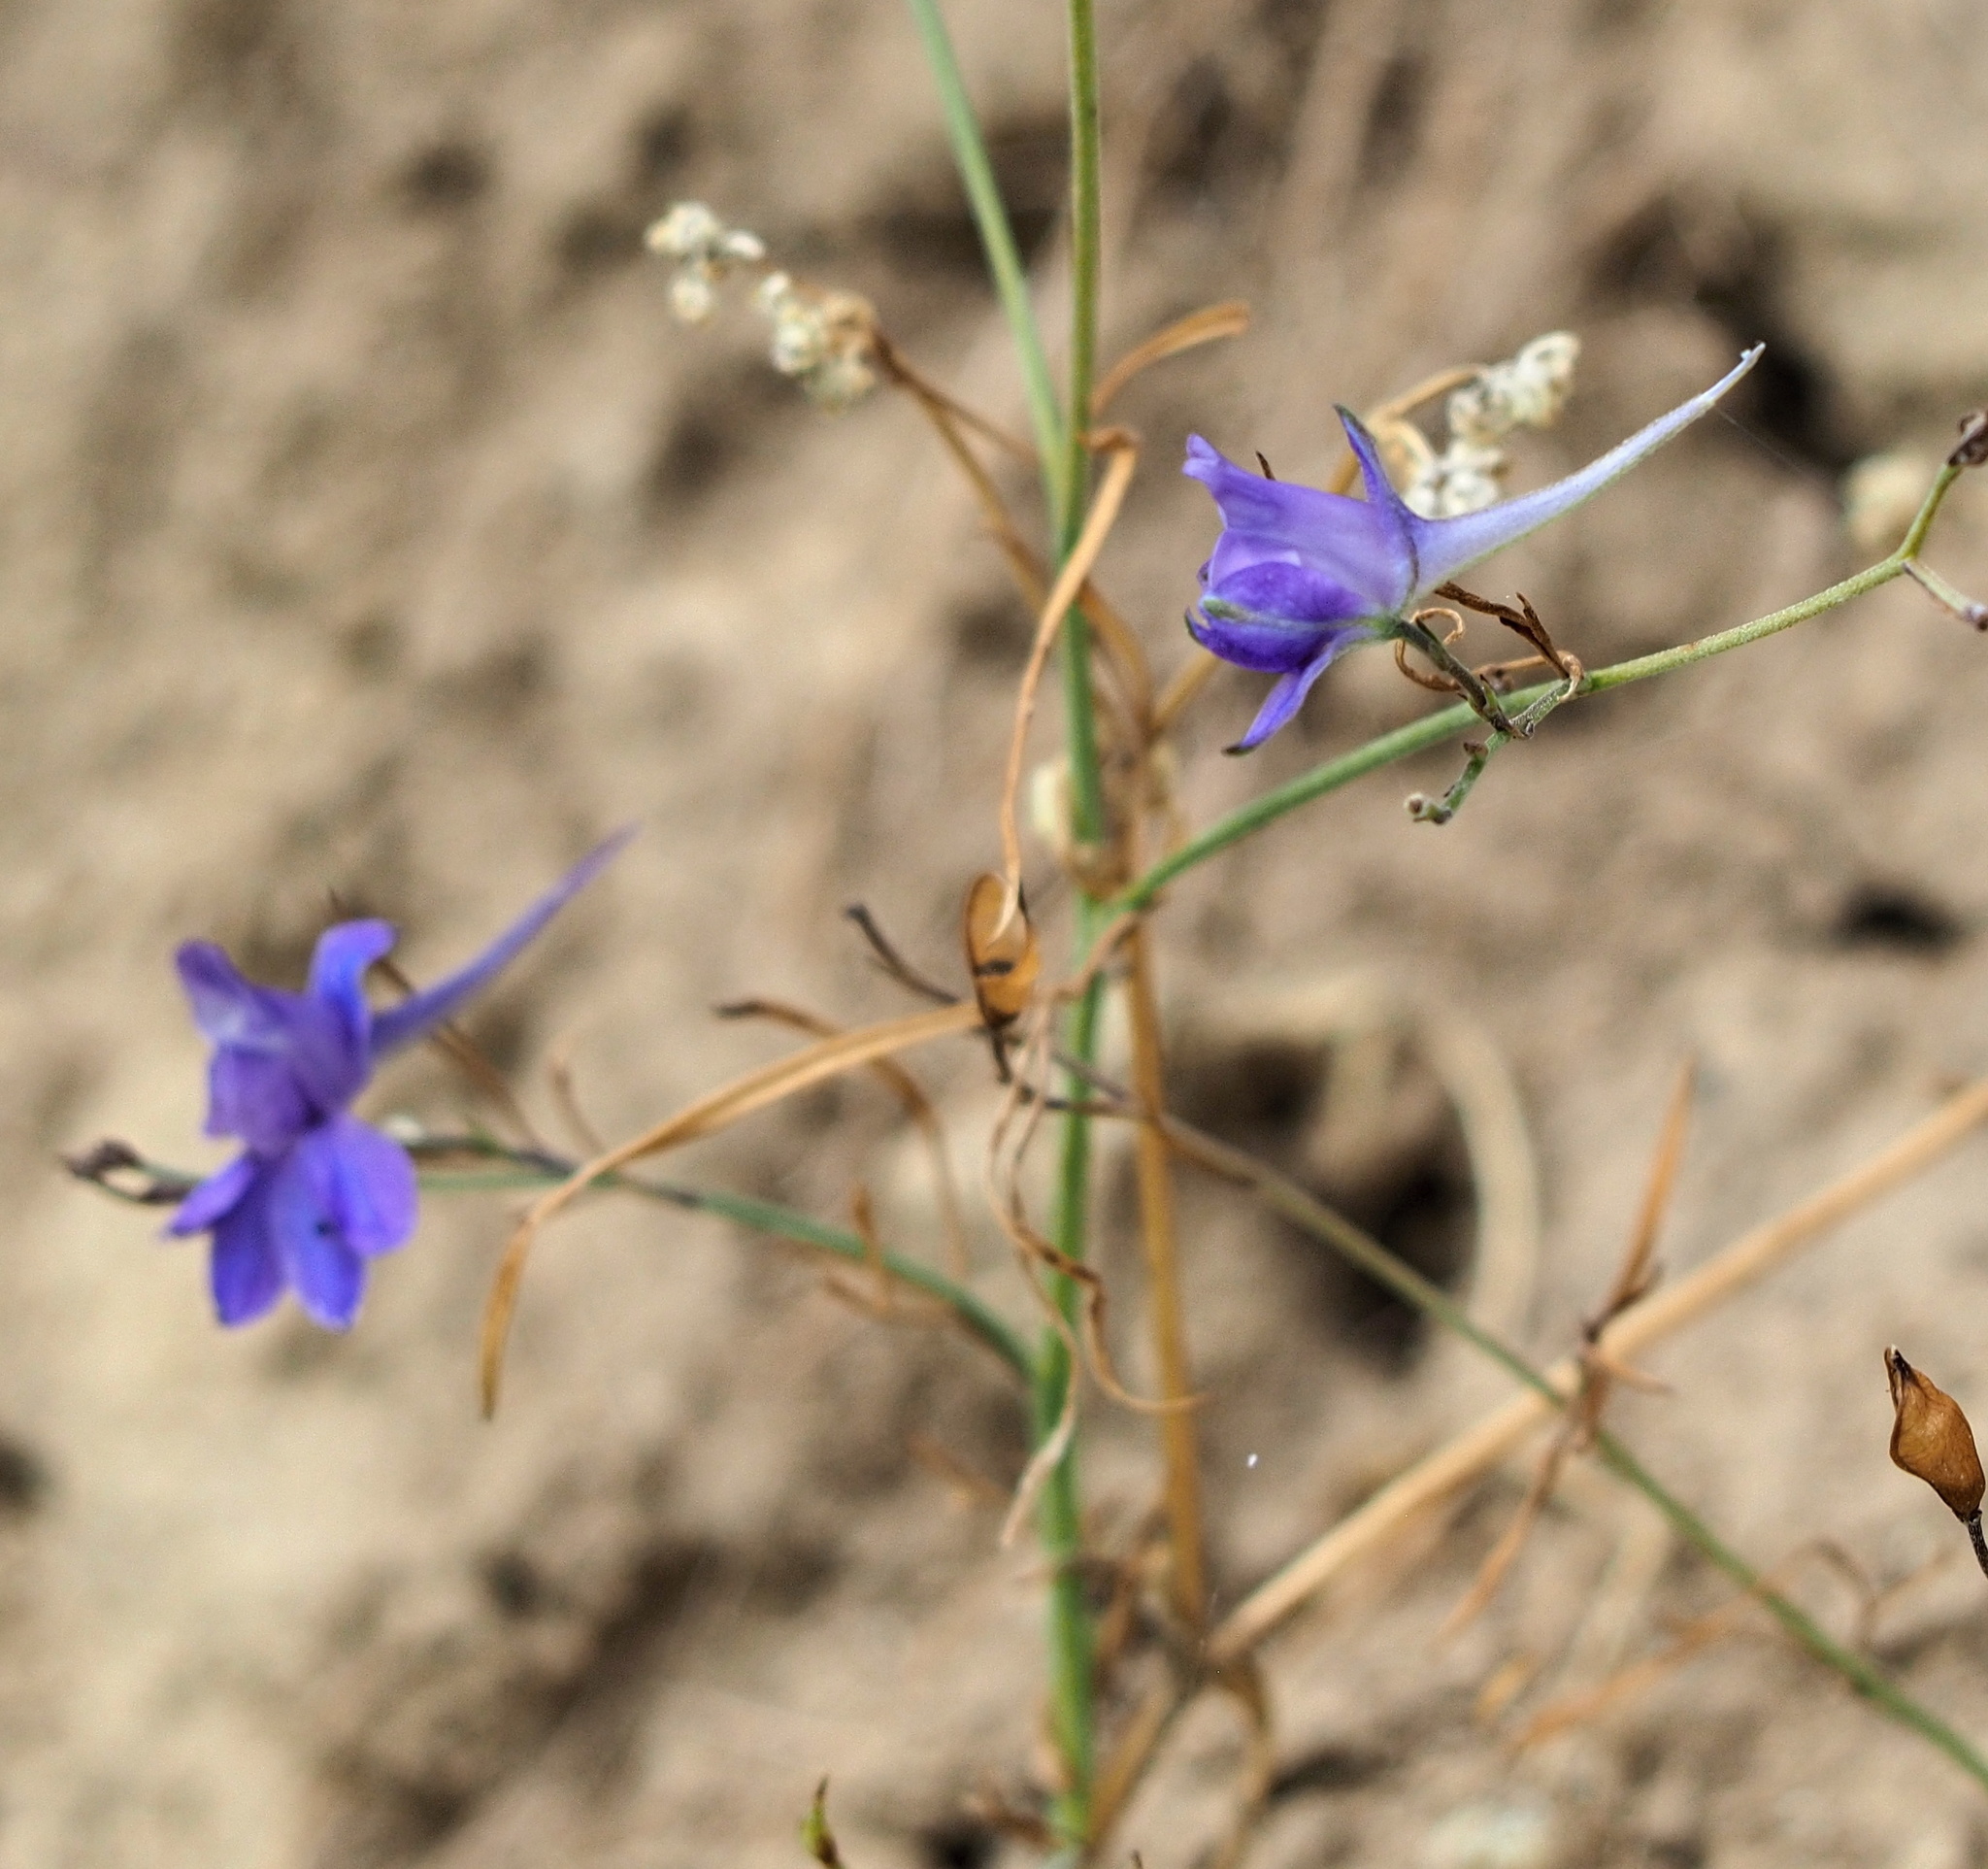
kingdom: Plantae
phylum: Tracheophyta
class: Magnoliopsida
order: Ranunculales
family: Ranunculaceae
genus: Delphinium
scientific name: Delphinium consolida
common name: Branching larkspur
